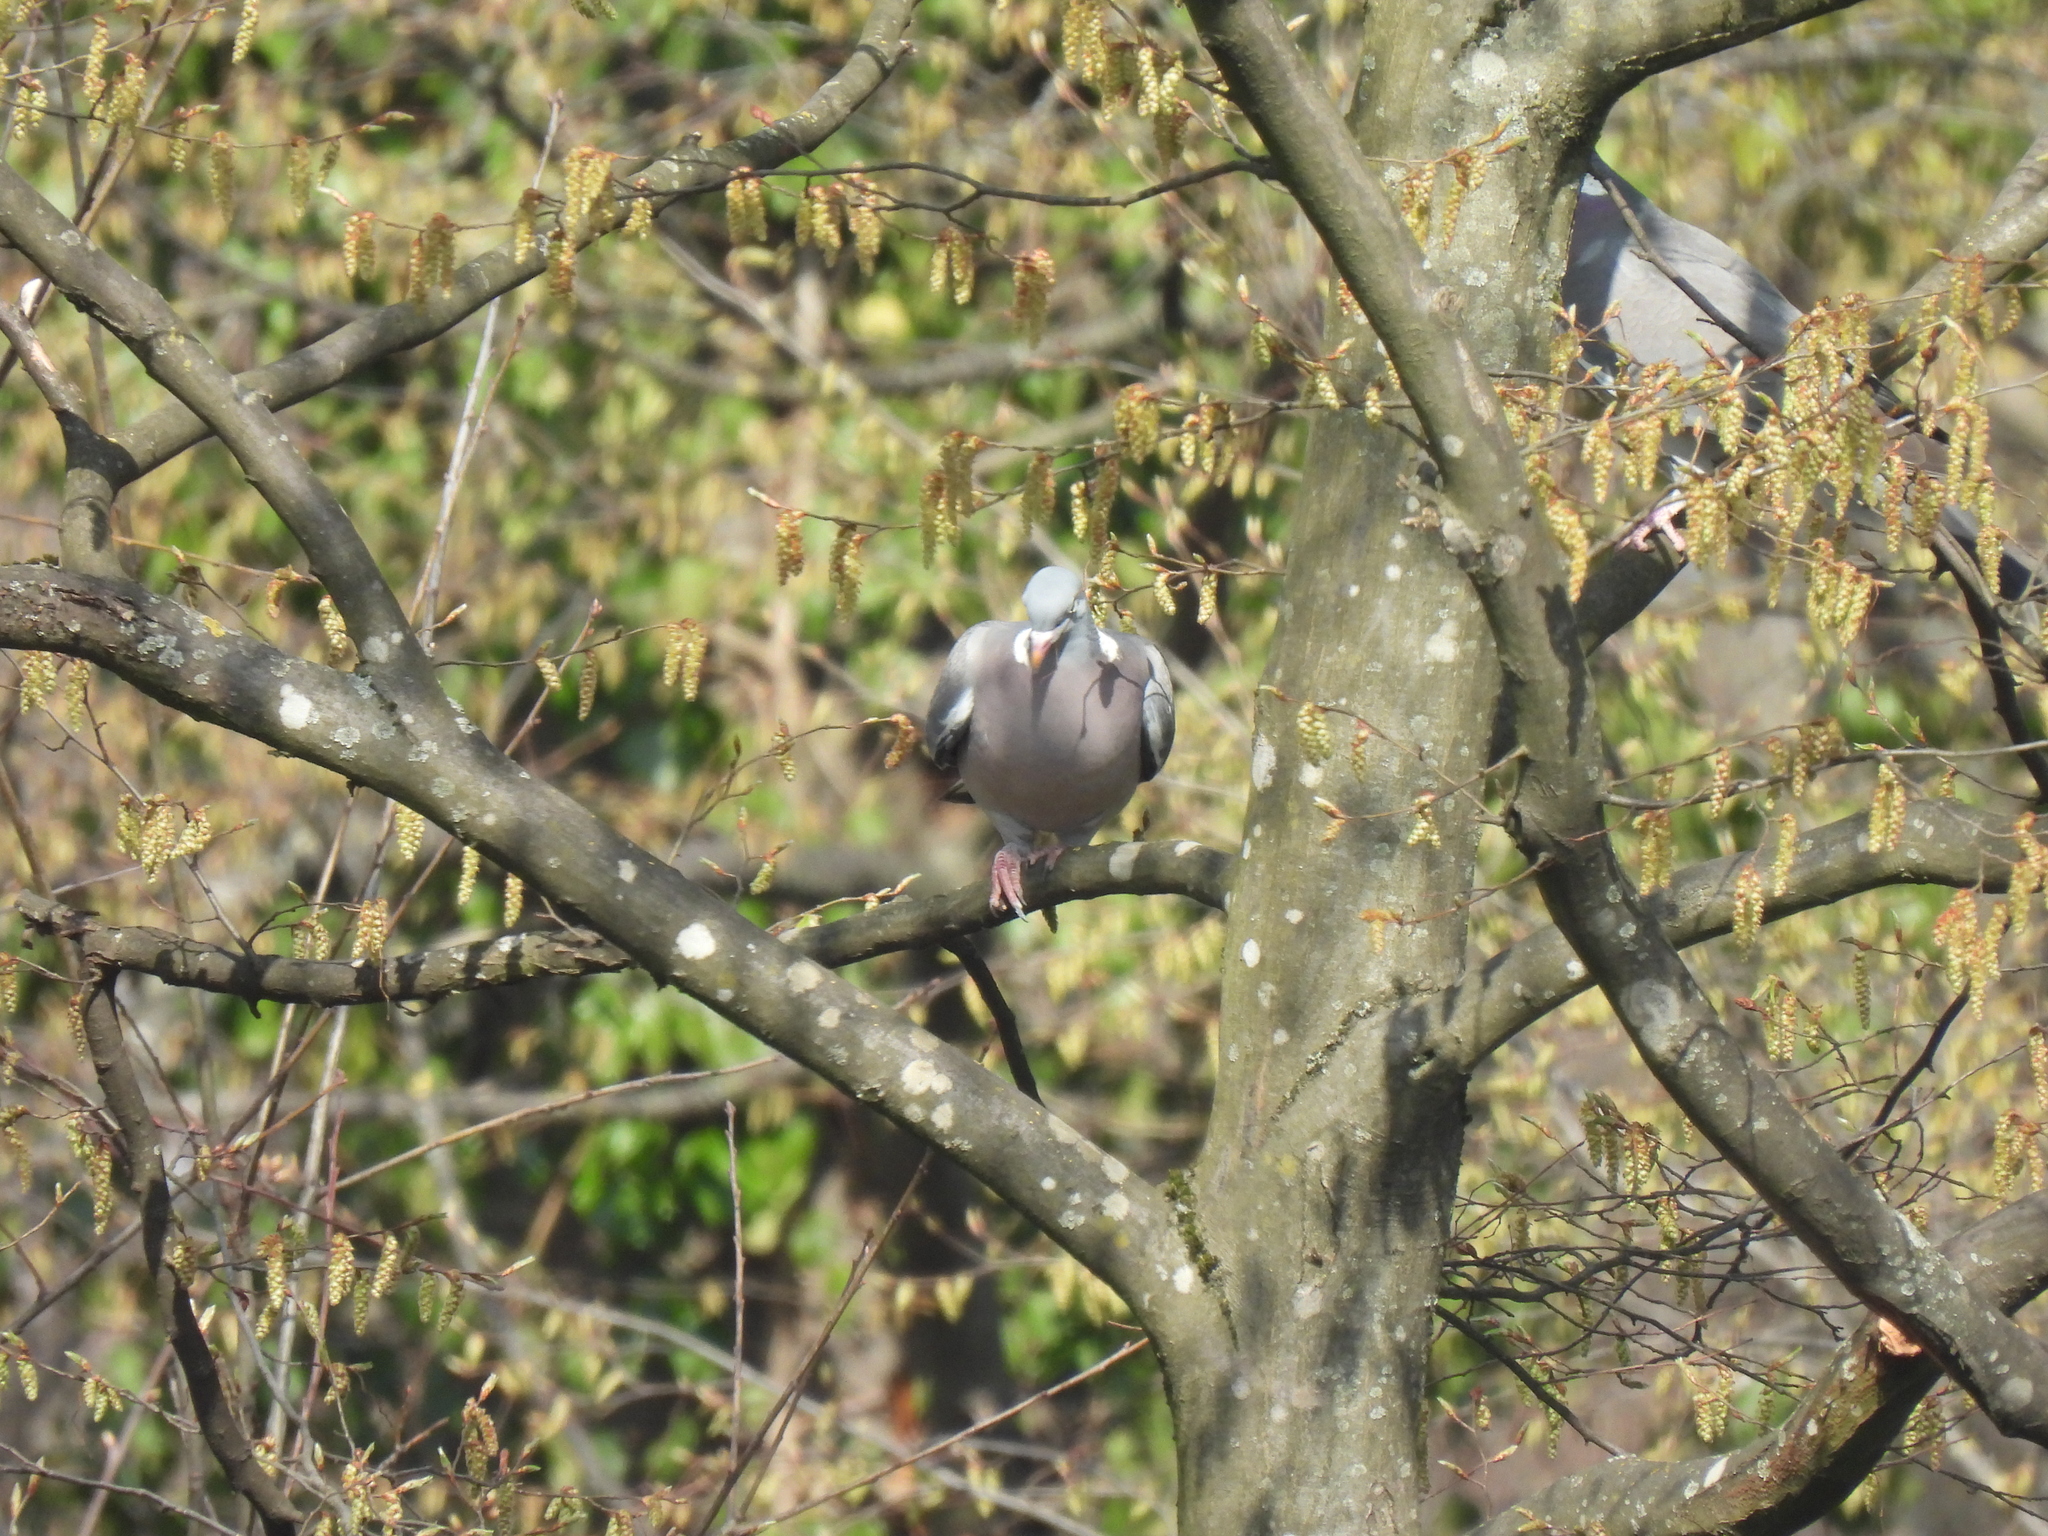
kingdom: Animalia
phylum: Chordata
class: Aves
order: Columbiformes
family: Columbidae
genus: Columba
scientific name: Columba palumbus
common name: Common wood pigeon
